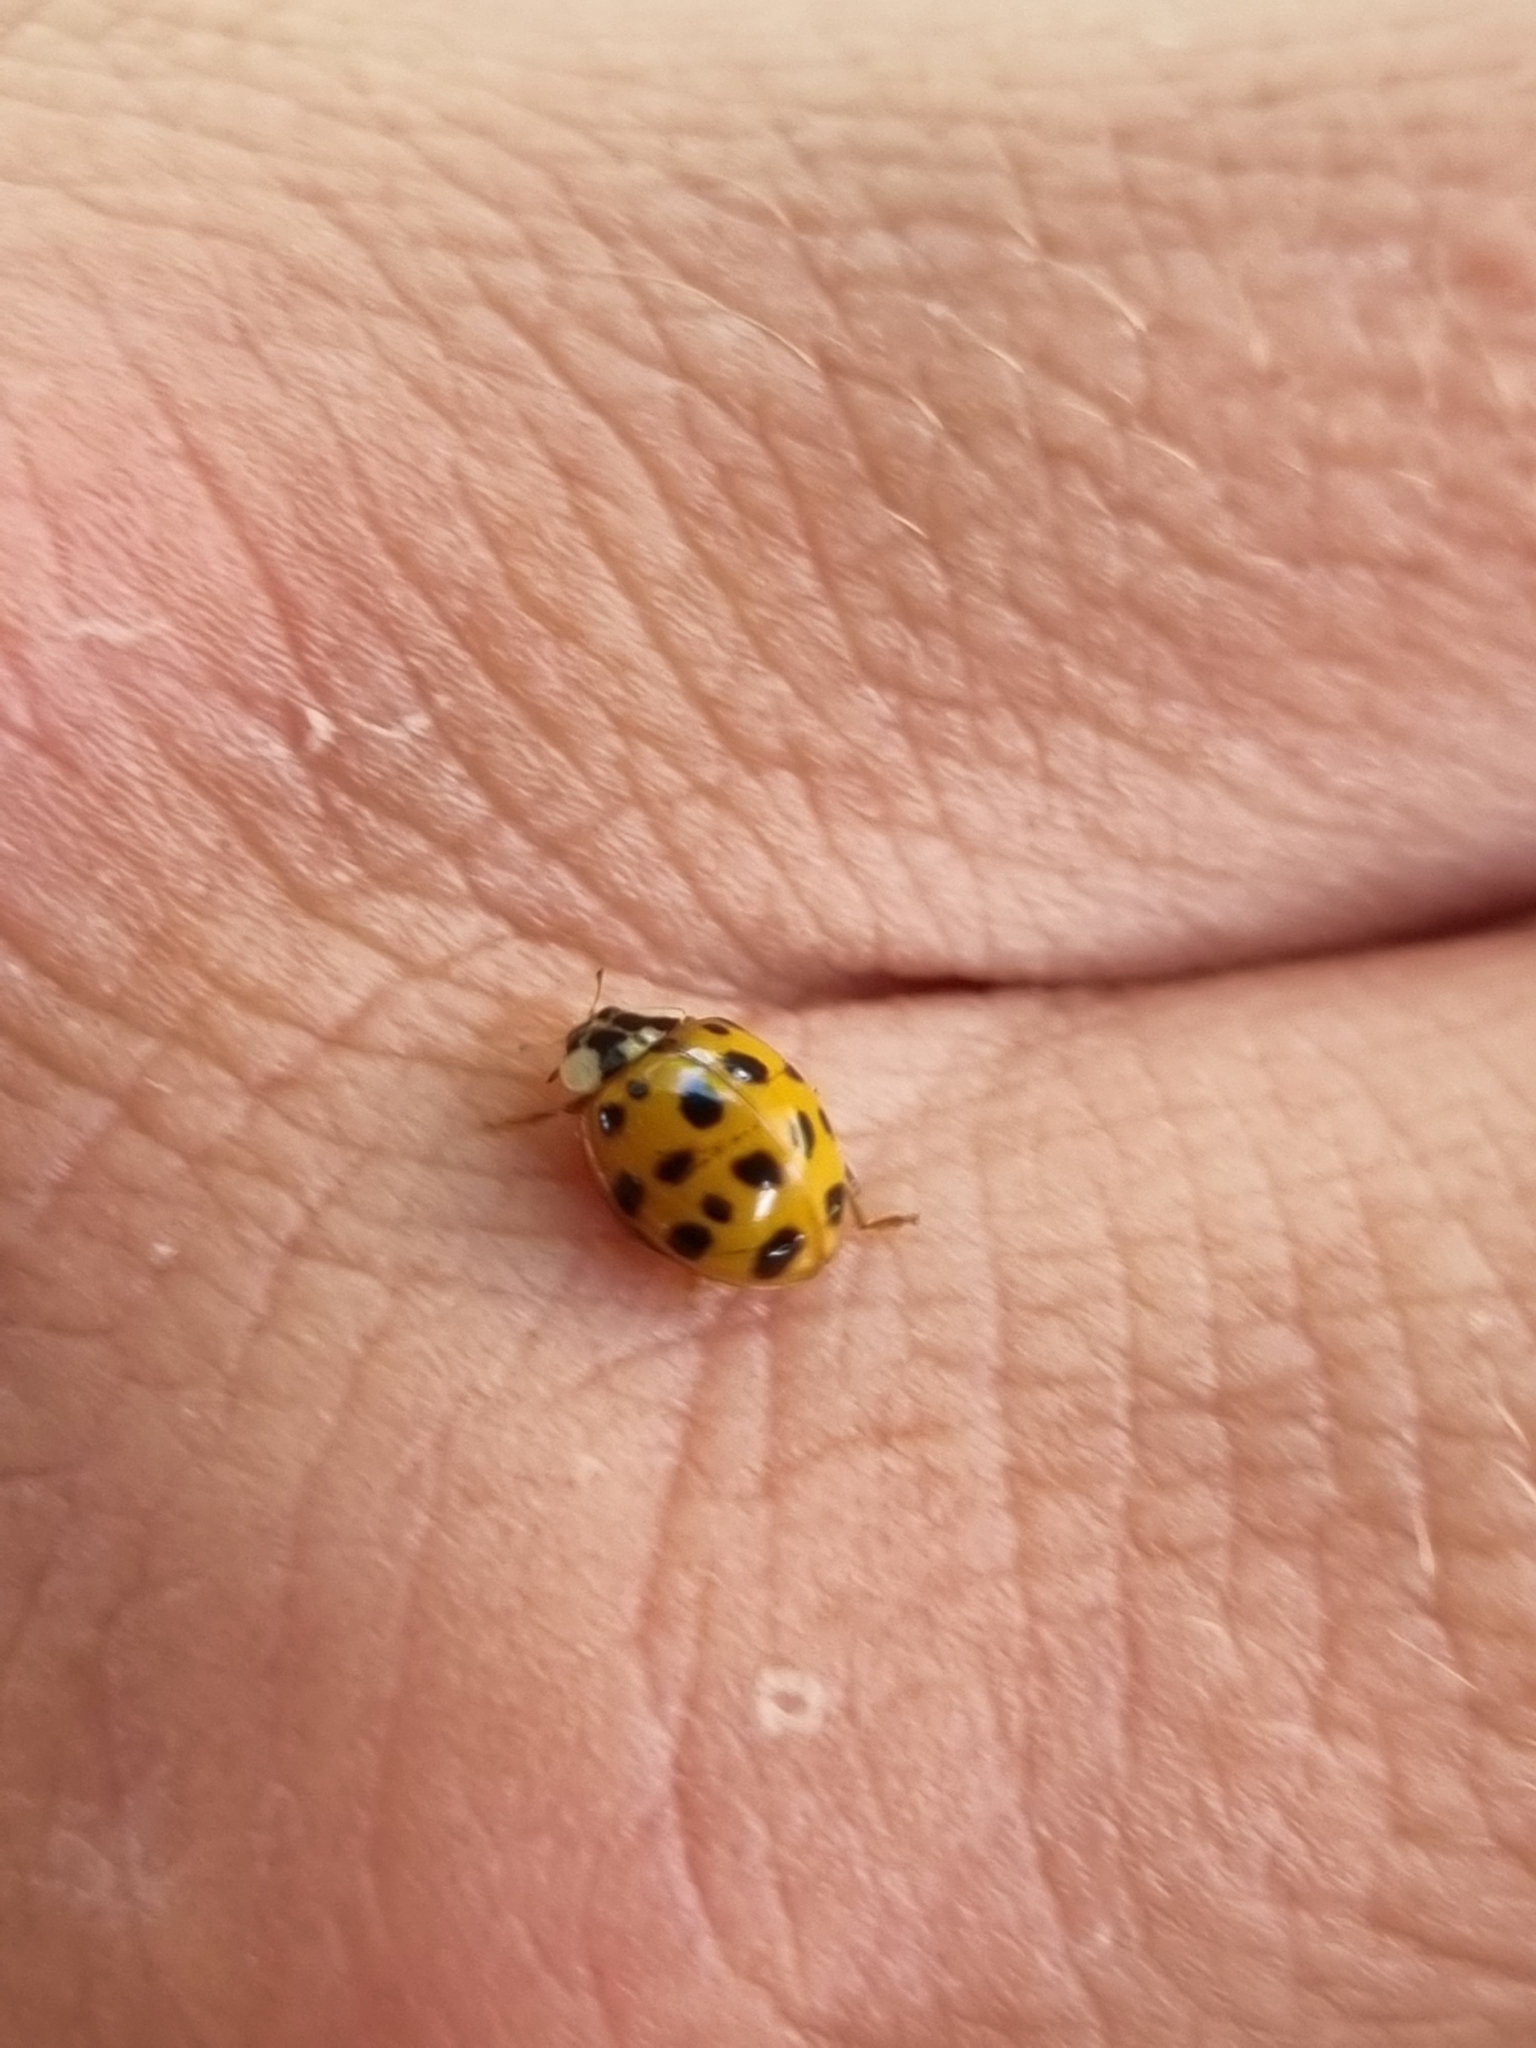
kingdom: Animalia
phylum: Arthropoda
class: Insecta
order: Coleoptera
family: Coccinellidae
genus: Harmonia
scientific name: Harmonia axyridis
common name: Harlequin ladybird
